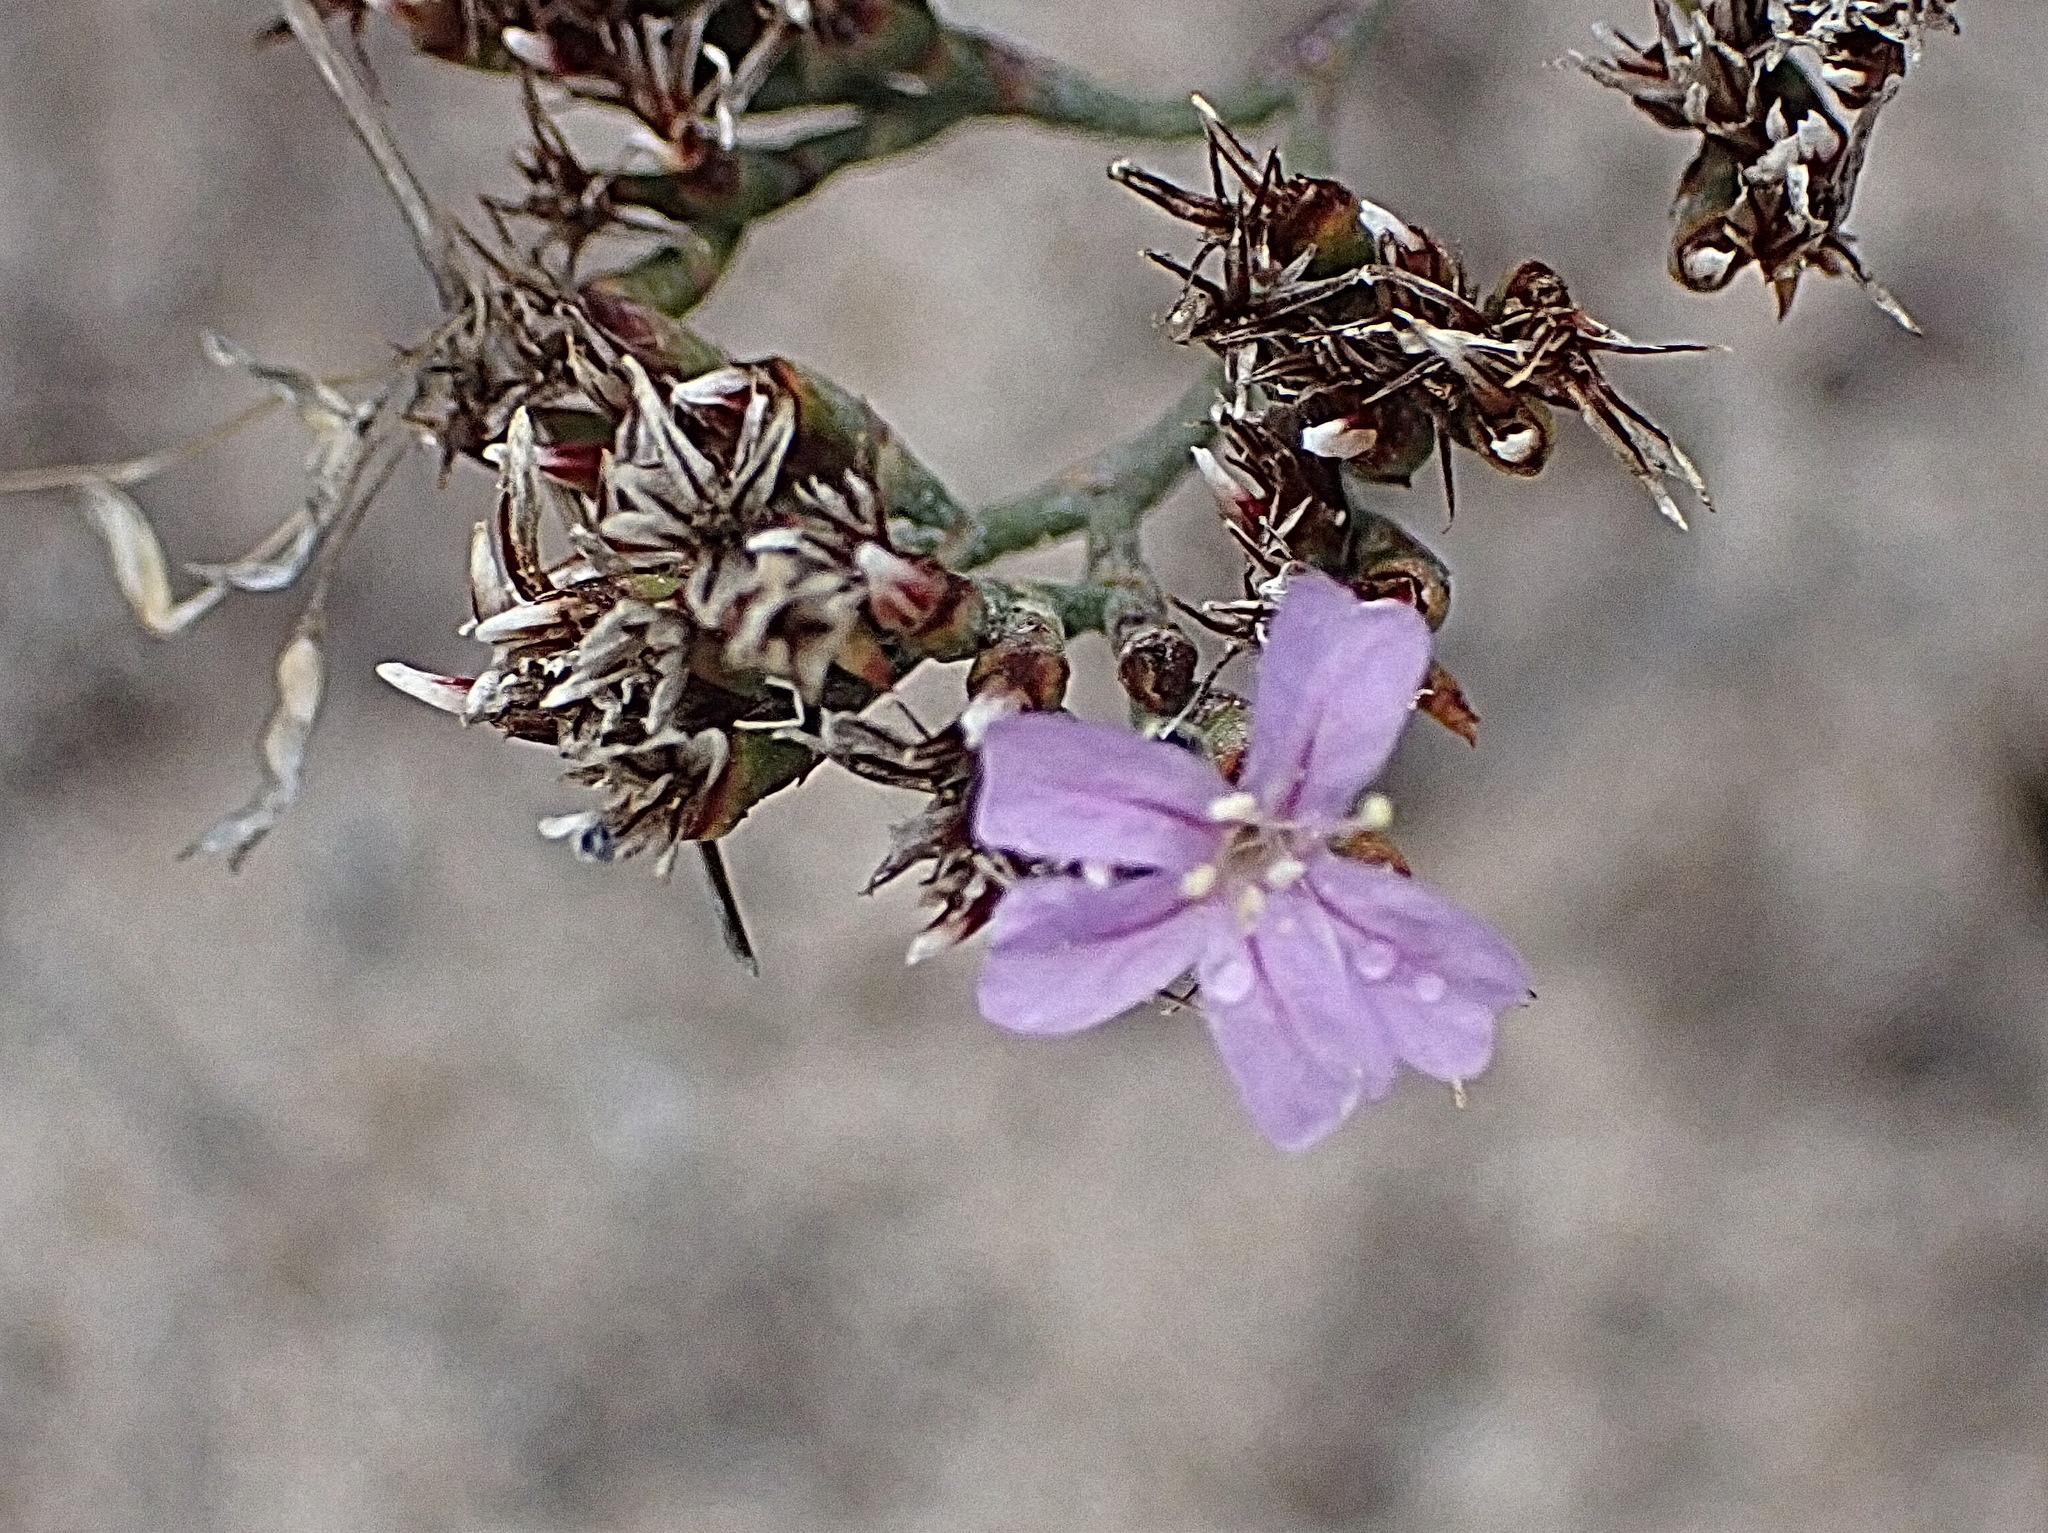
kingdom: Plantae
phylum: Tracheophyta
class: Magnoliopsida
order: Caryophyllales
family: Plumbaginaceae
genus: Limonium
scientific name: Limonium scabrum
